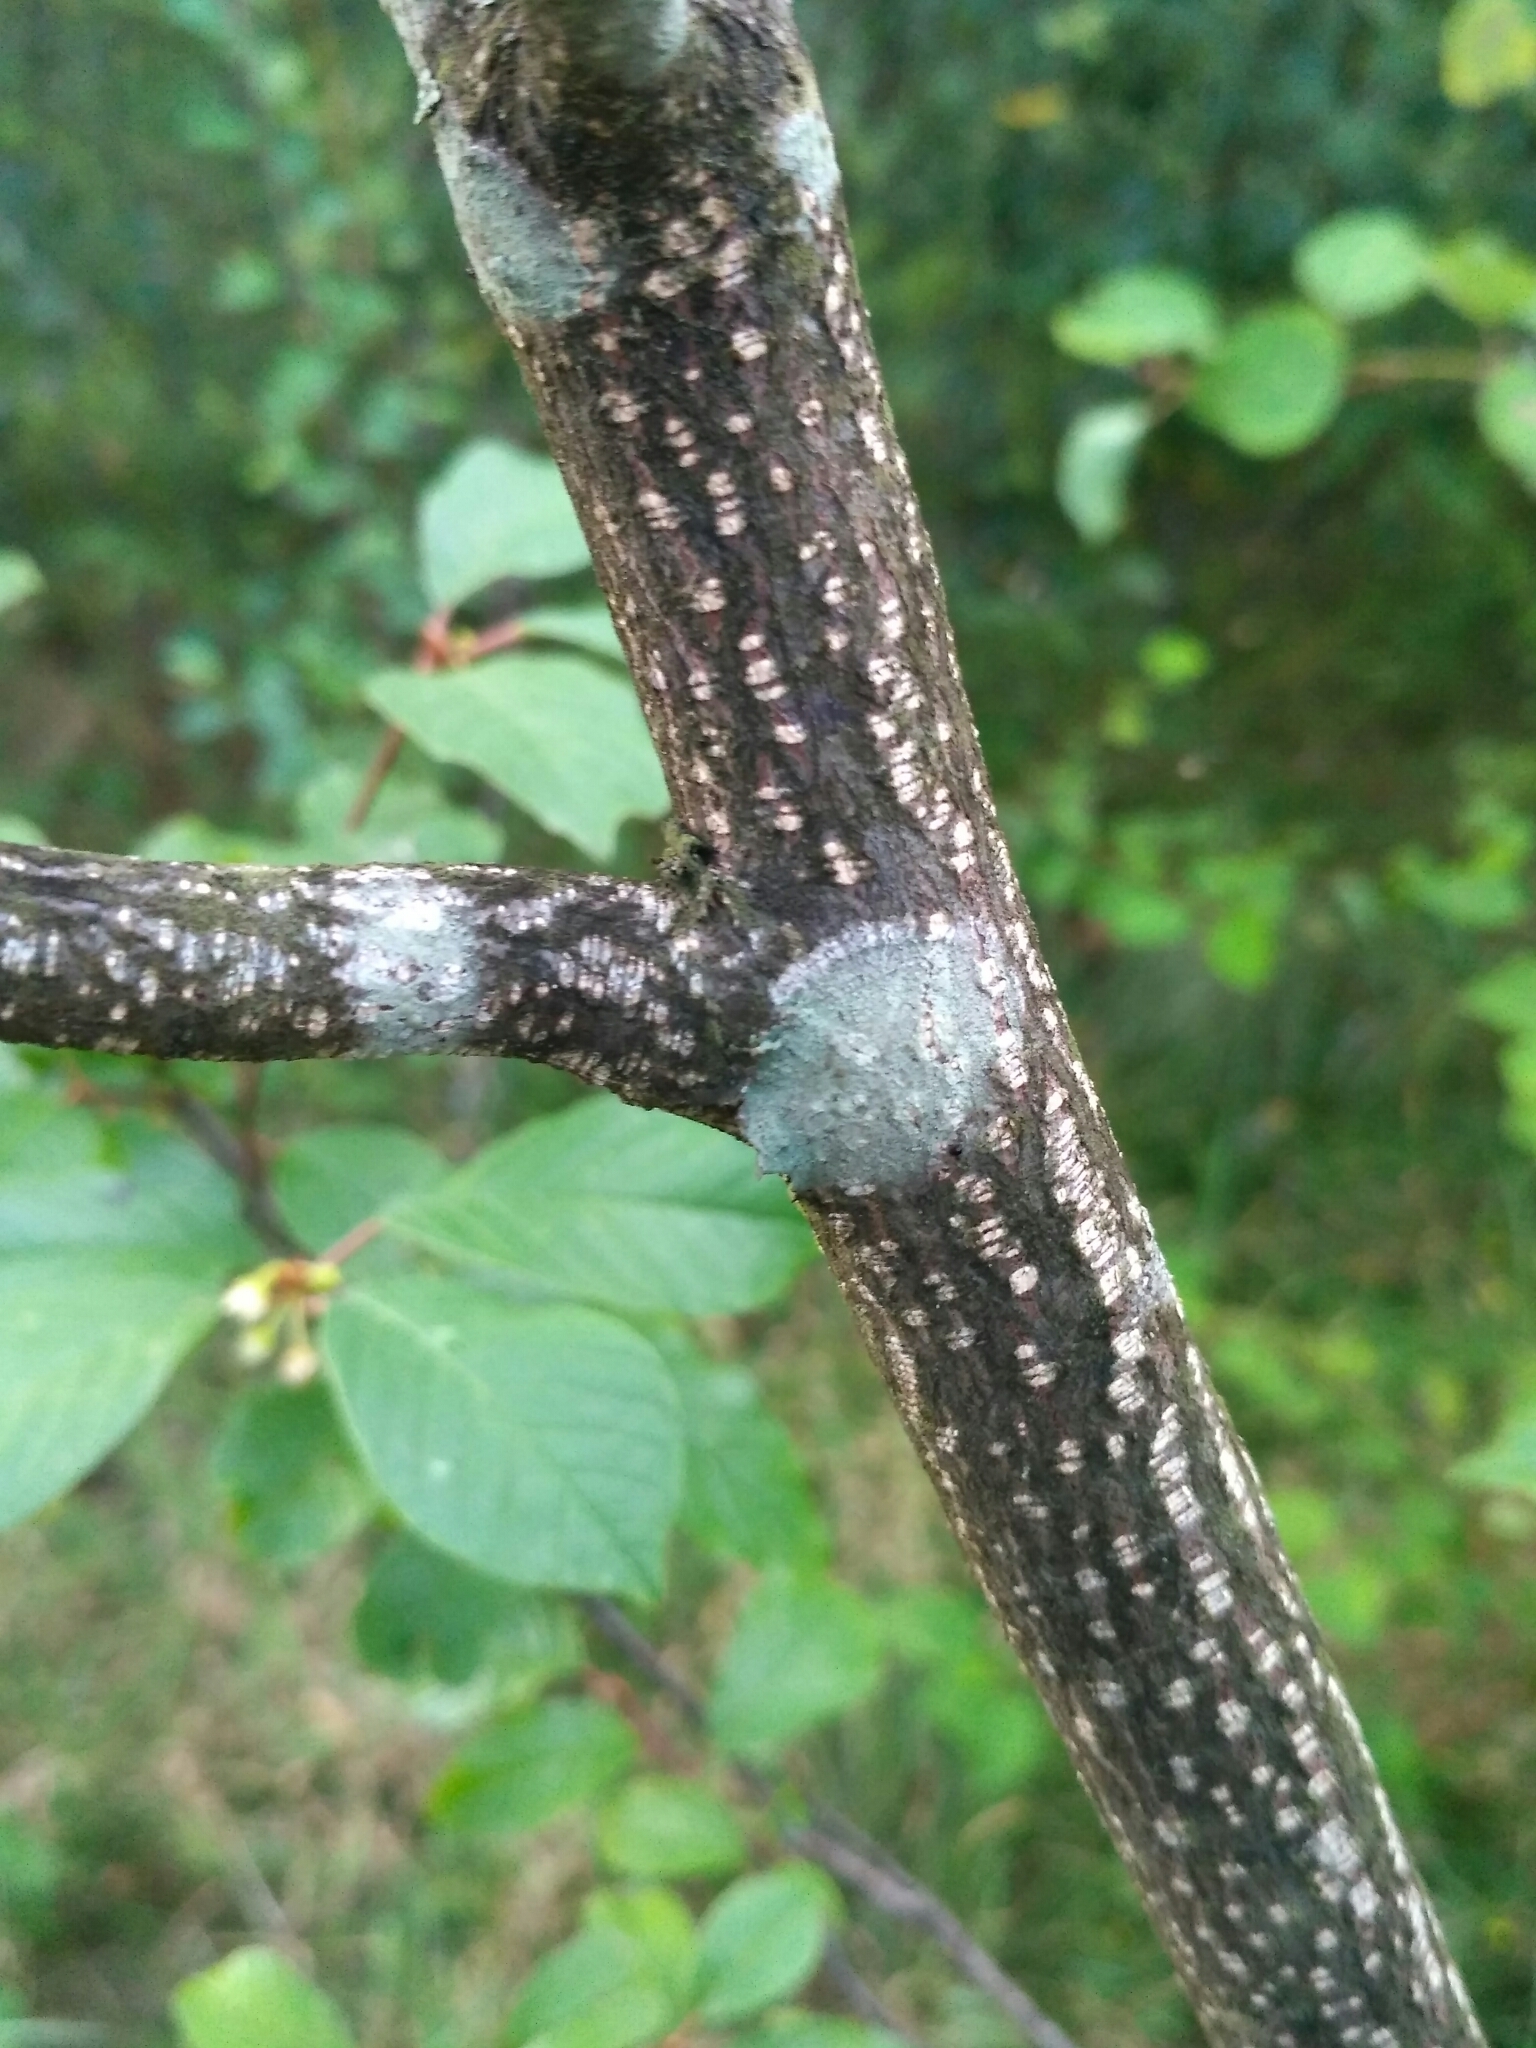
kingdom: Fungi
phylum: Ascomycota
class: Lecanoromycetes
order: Pertusariales
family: Pertusariaceae
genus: Verseghya
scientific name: Verseghya thysanophora
